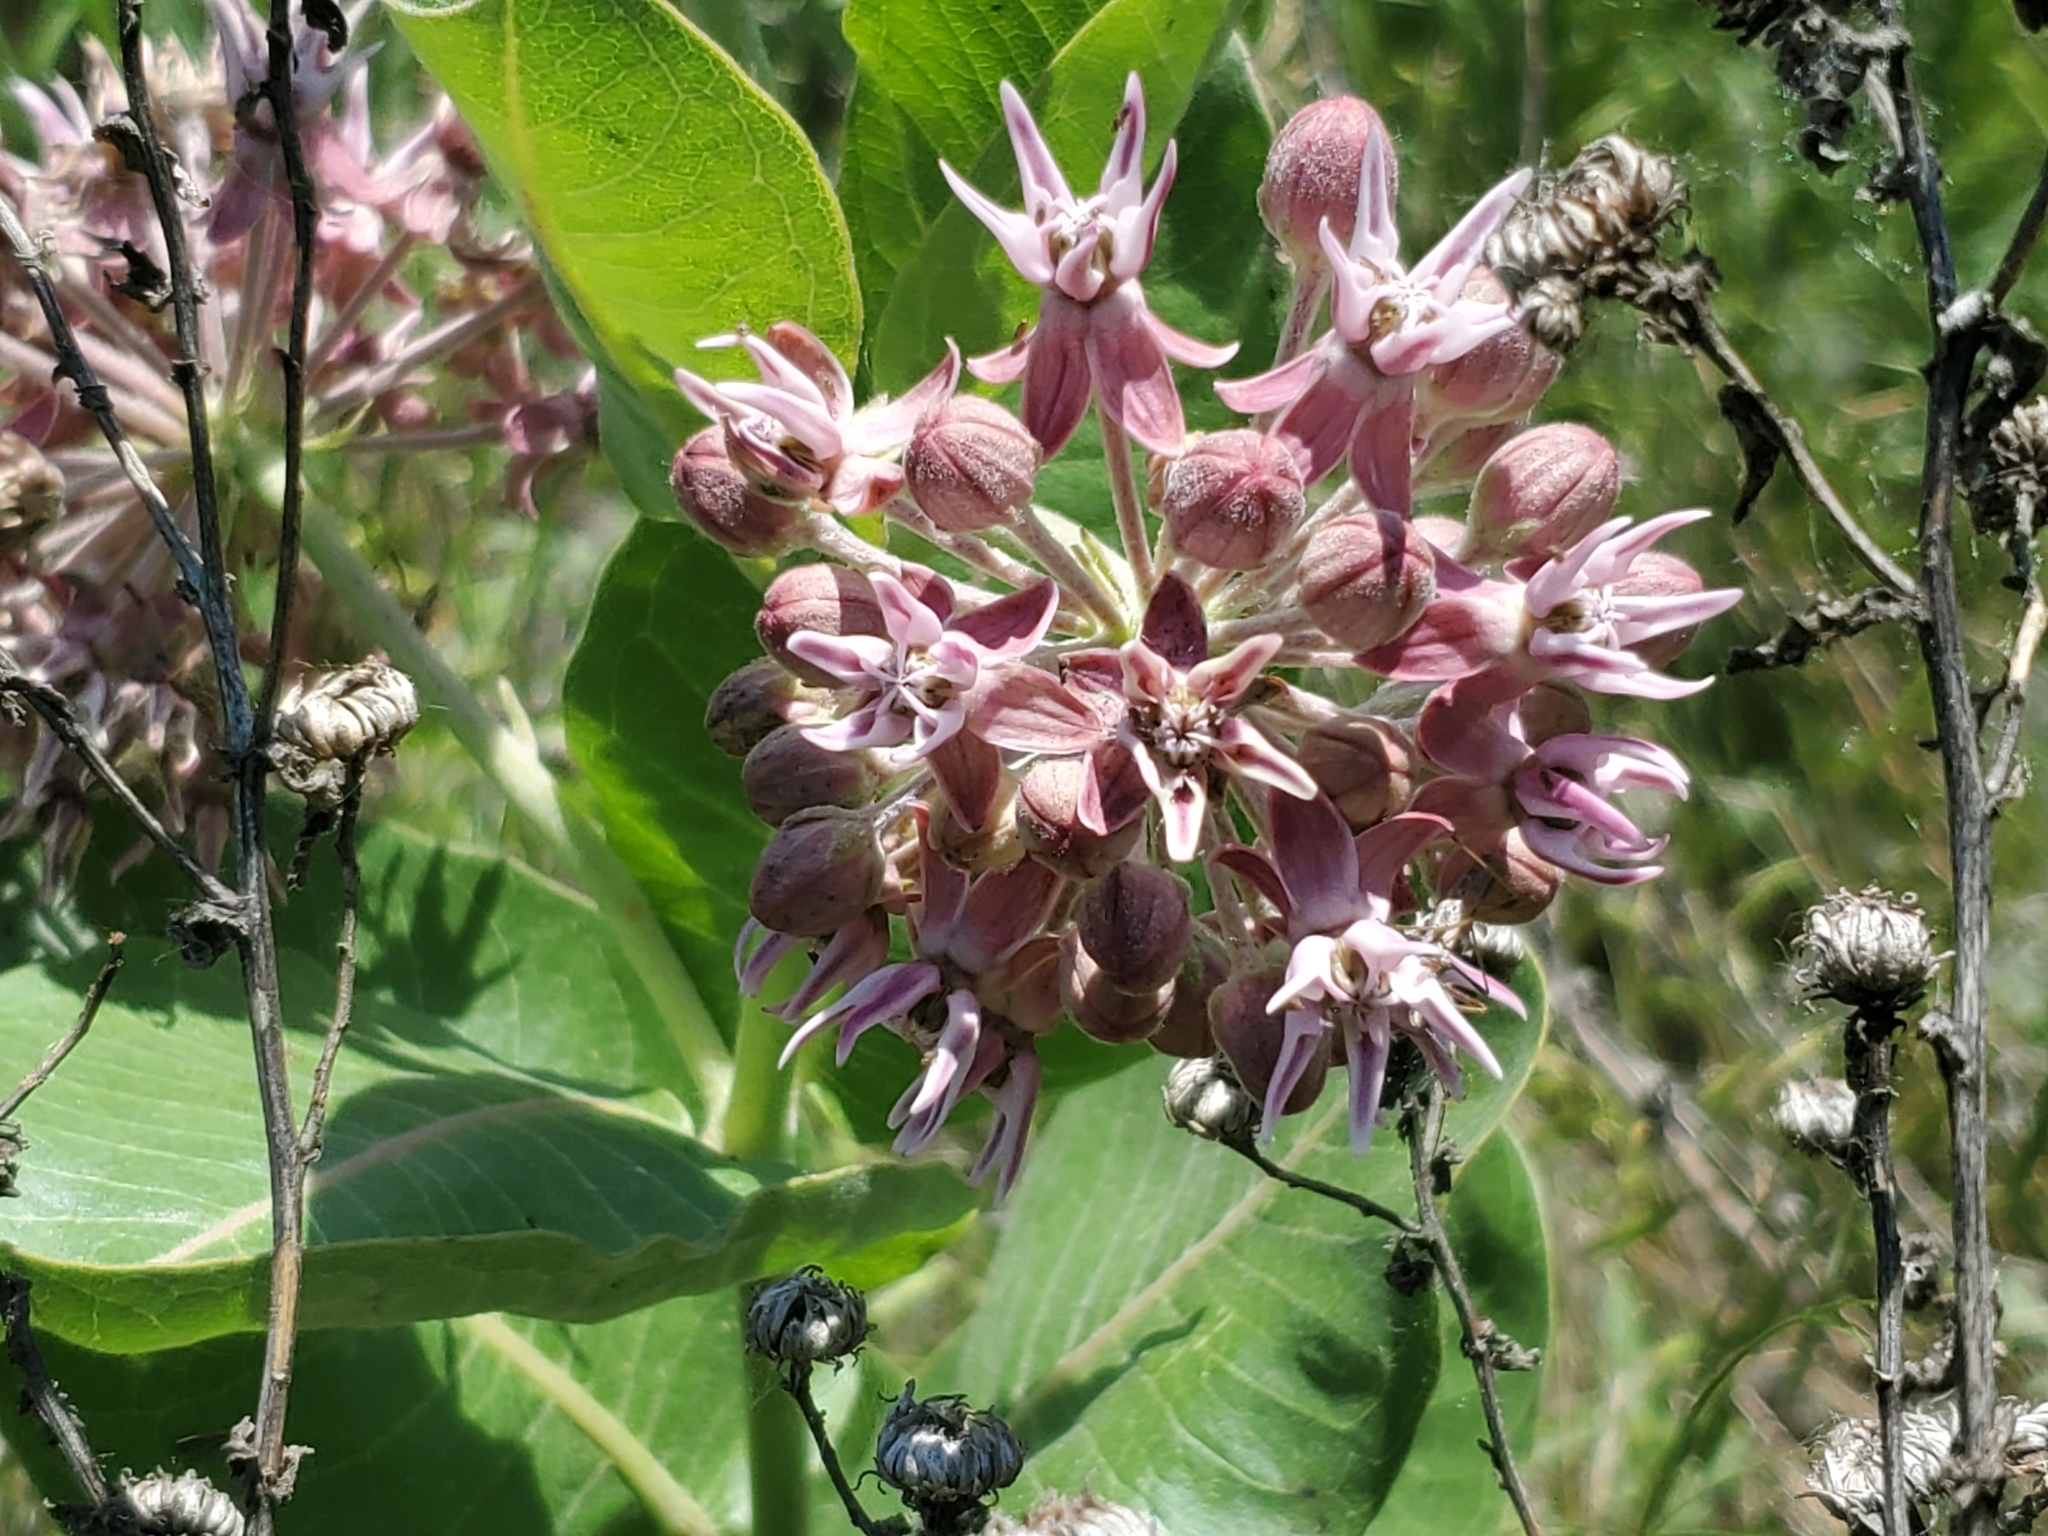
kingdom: Plantae
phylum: Tracheophyta
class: Magnoliopsida
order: Gentianales
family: Apocynaceae
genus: Asclepias
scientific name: Asclepias speciosa
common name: Showy milkweed
